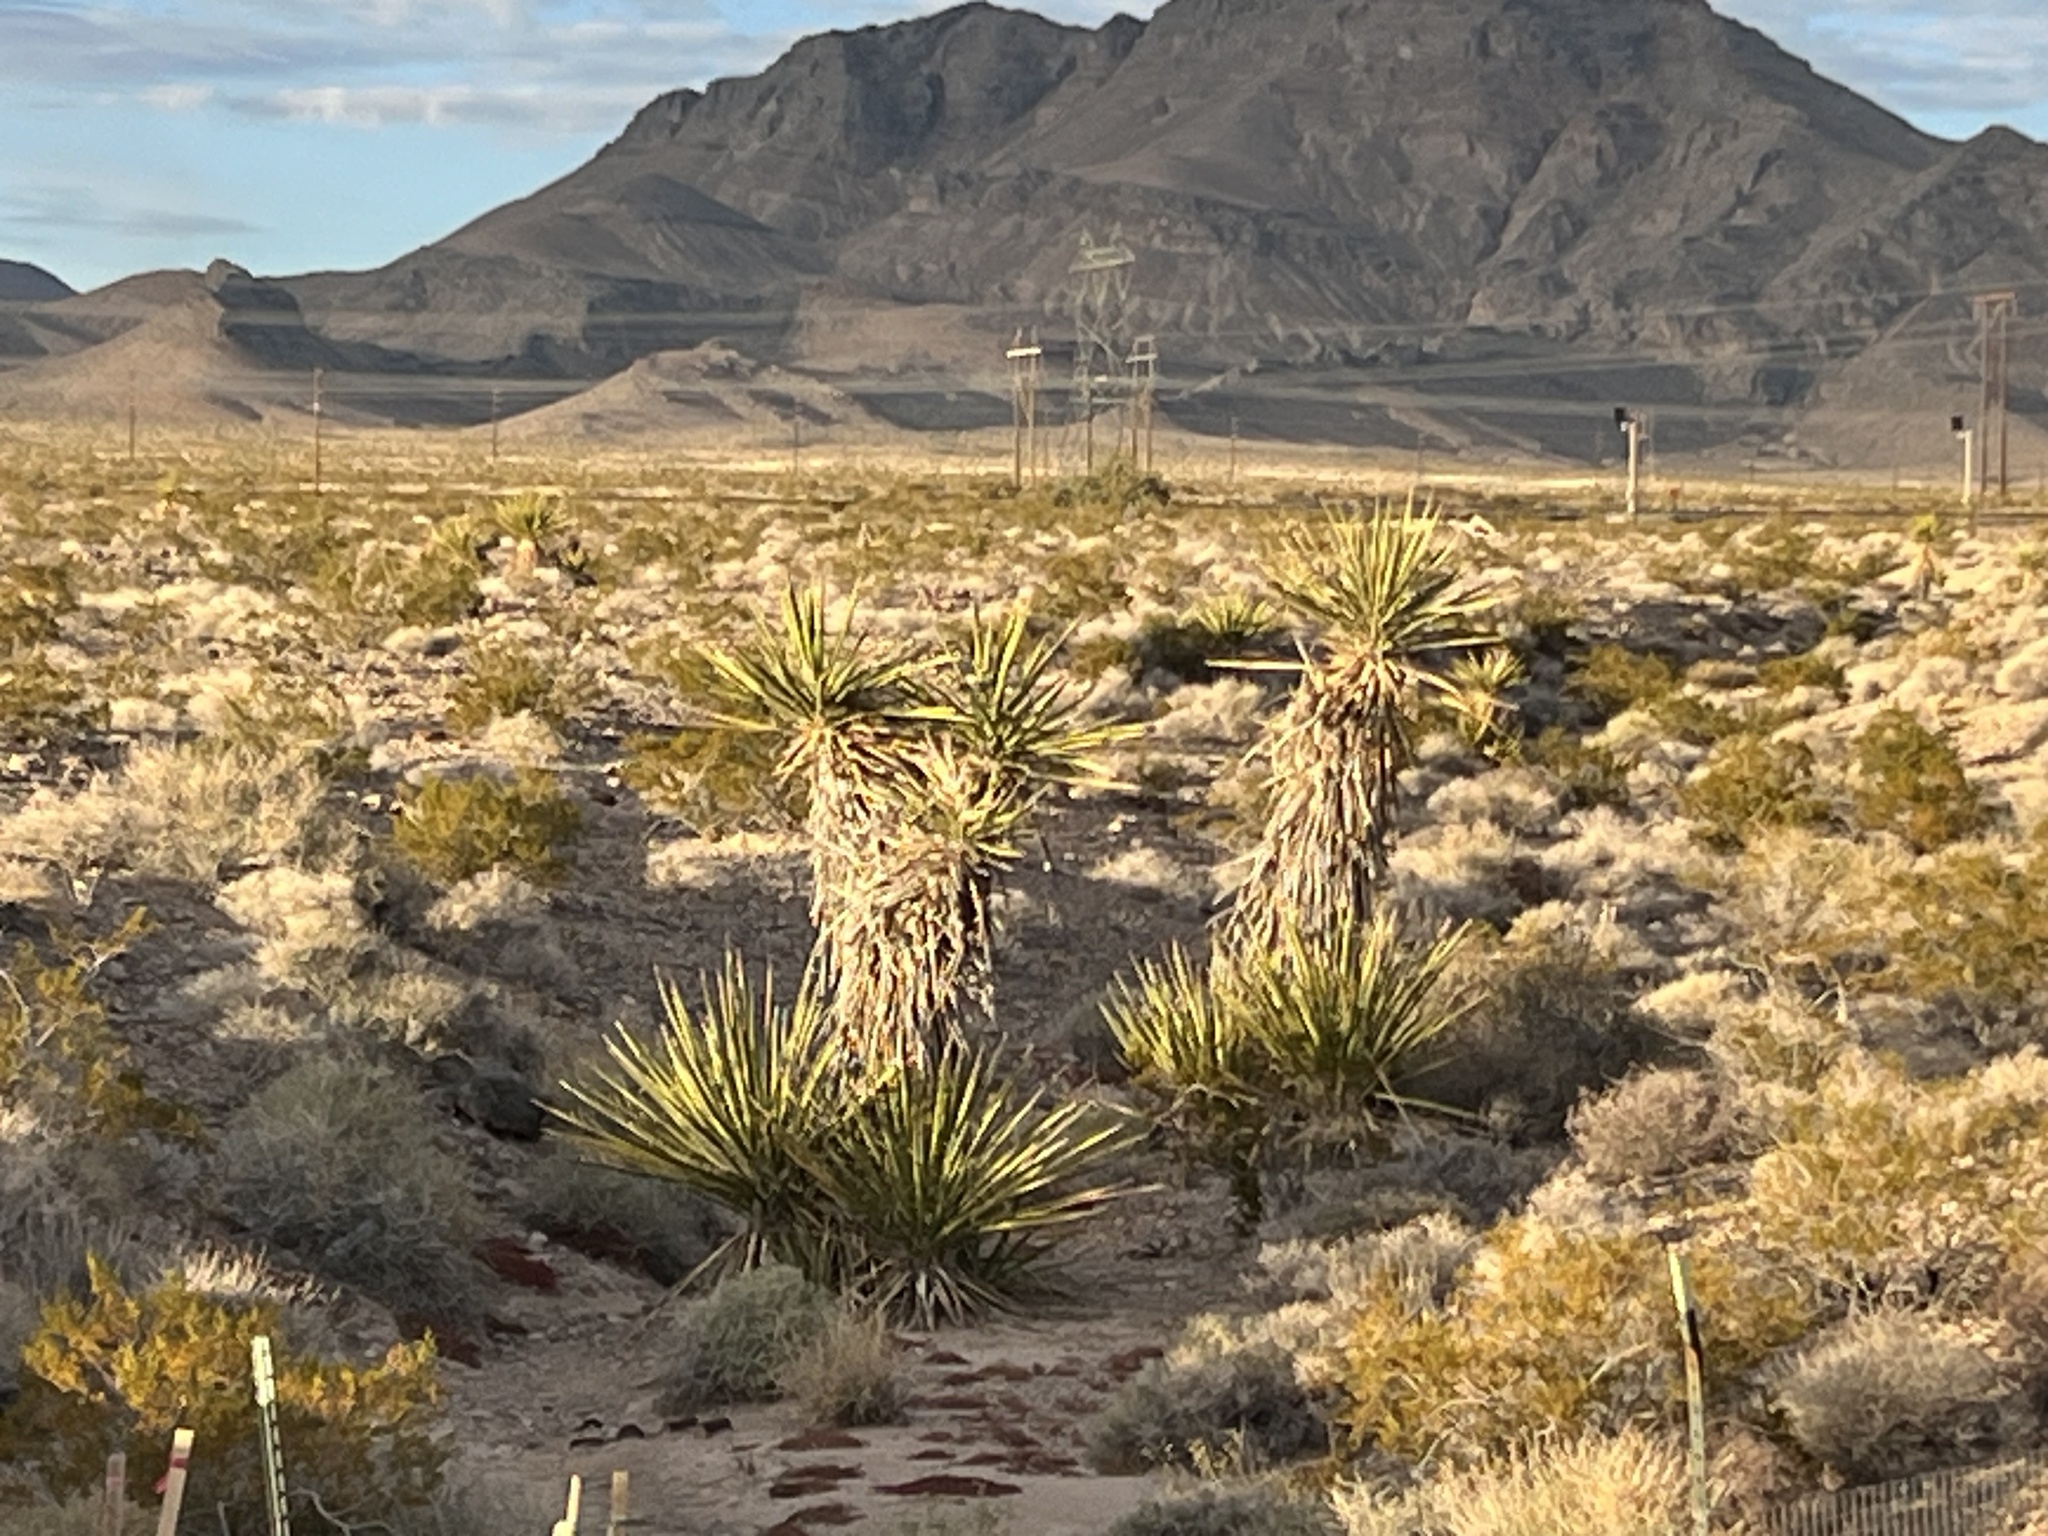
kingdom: Plantae
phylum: Tracheophyta
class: Liliopsida
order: Asparagales
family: Asparagaceae
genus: Yucca
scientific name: Yucca schidigera
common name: Mojave yucca
